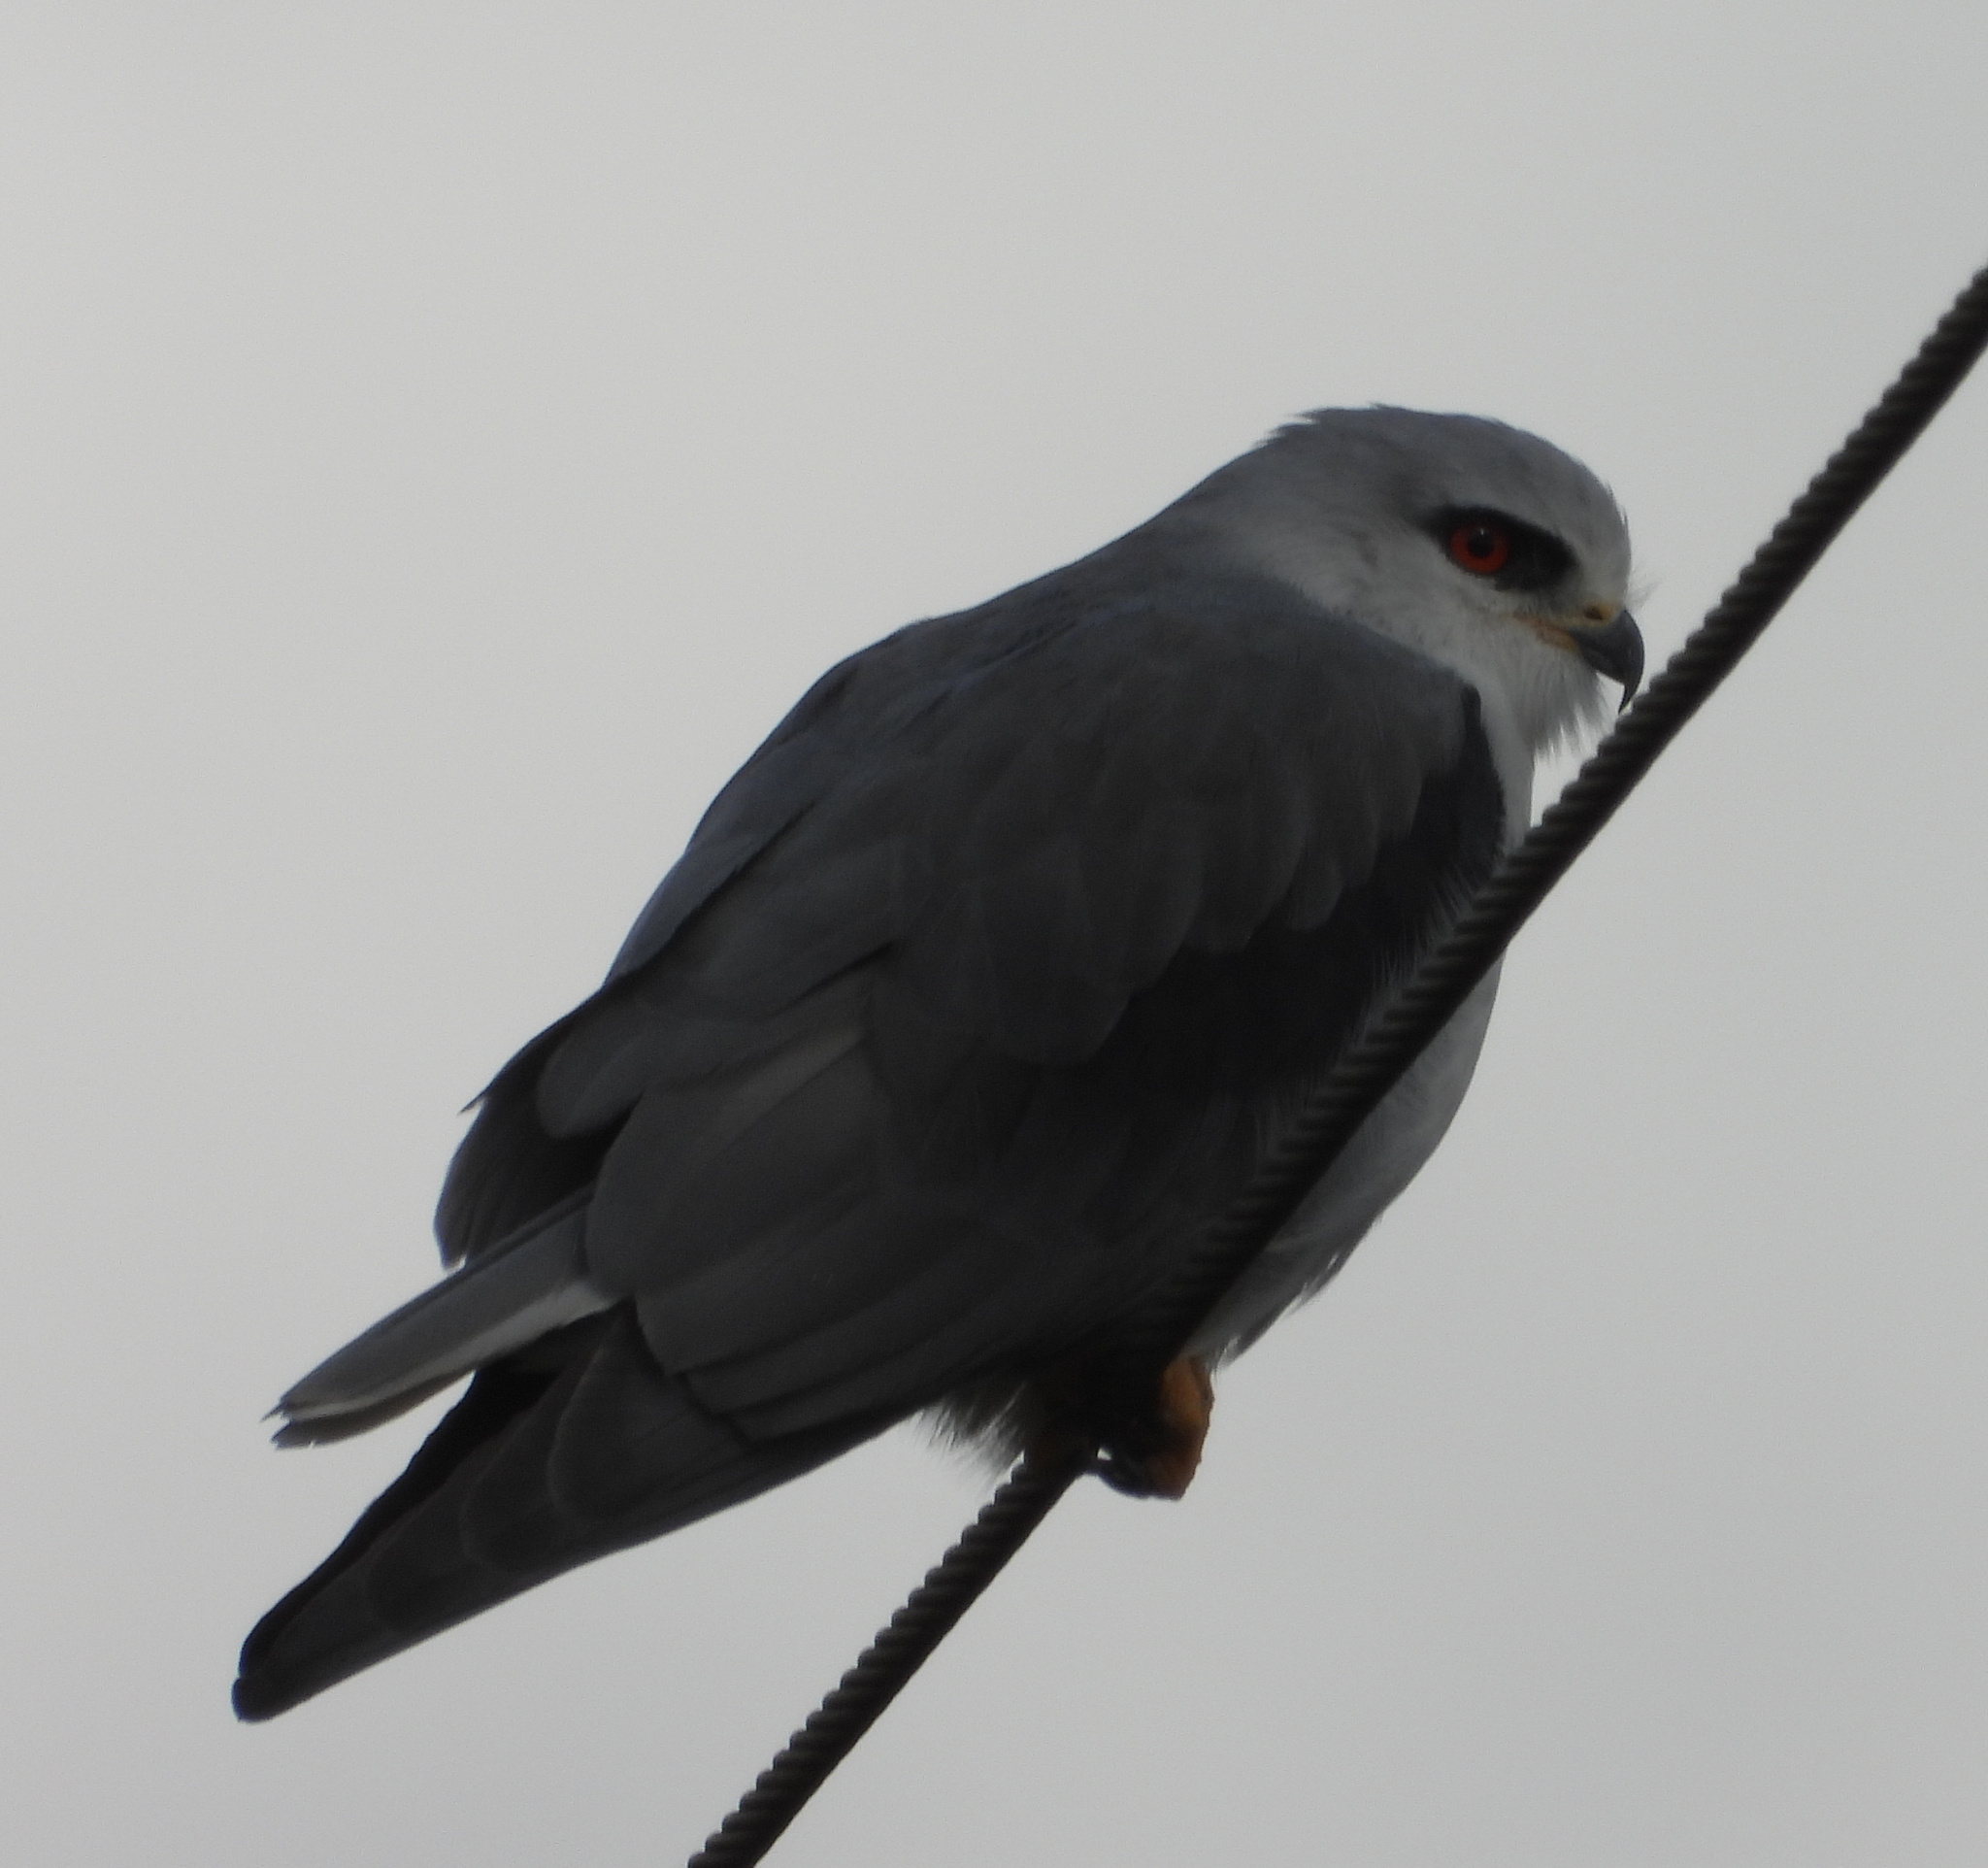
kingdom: Animalia
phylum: Chordata
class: Aves
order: Accipitriformes
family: Accipitridae
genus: Elanus
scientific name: Elanus caeruleus
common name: Black-winged kite
